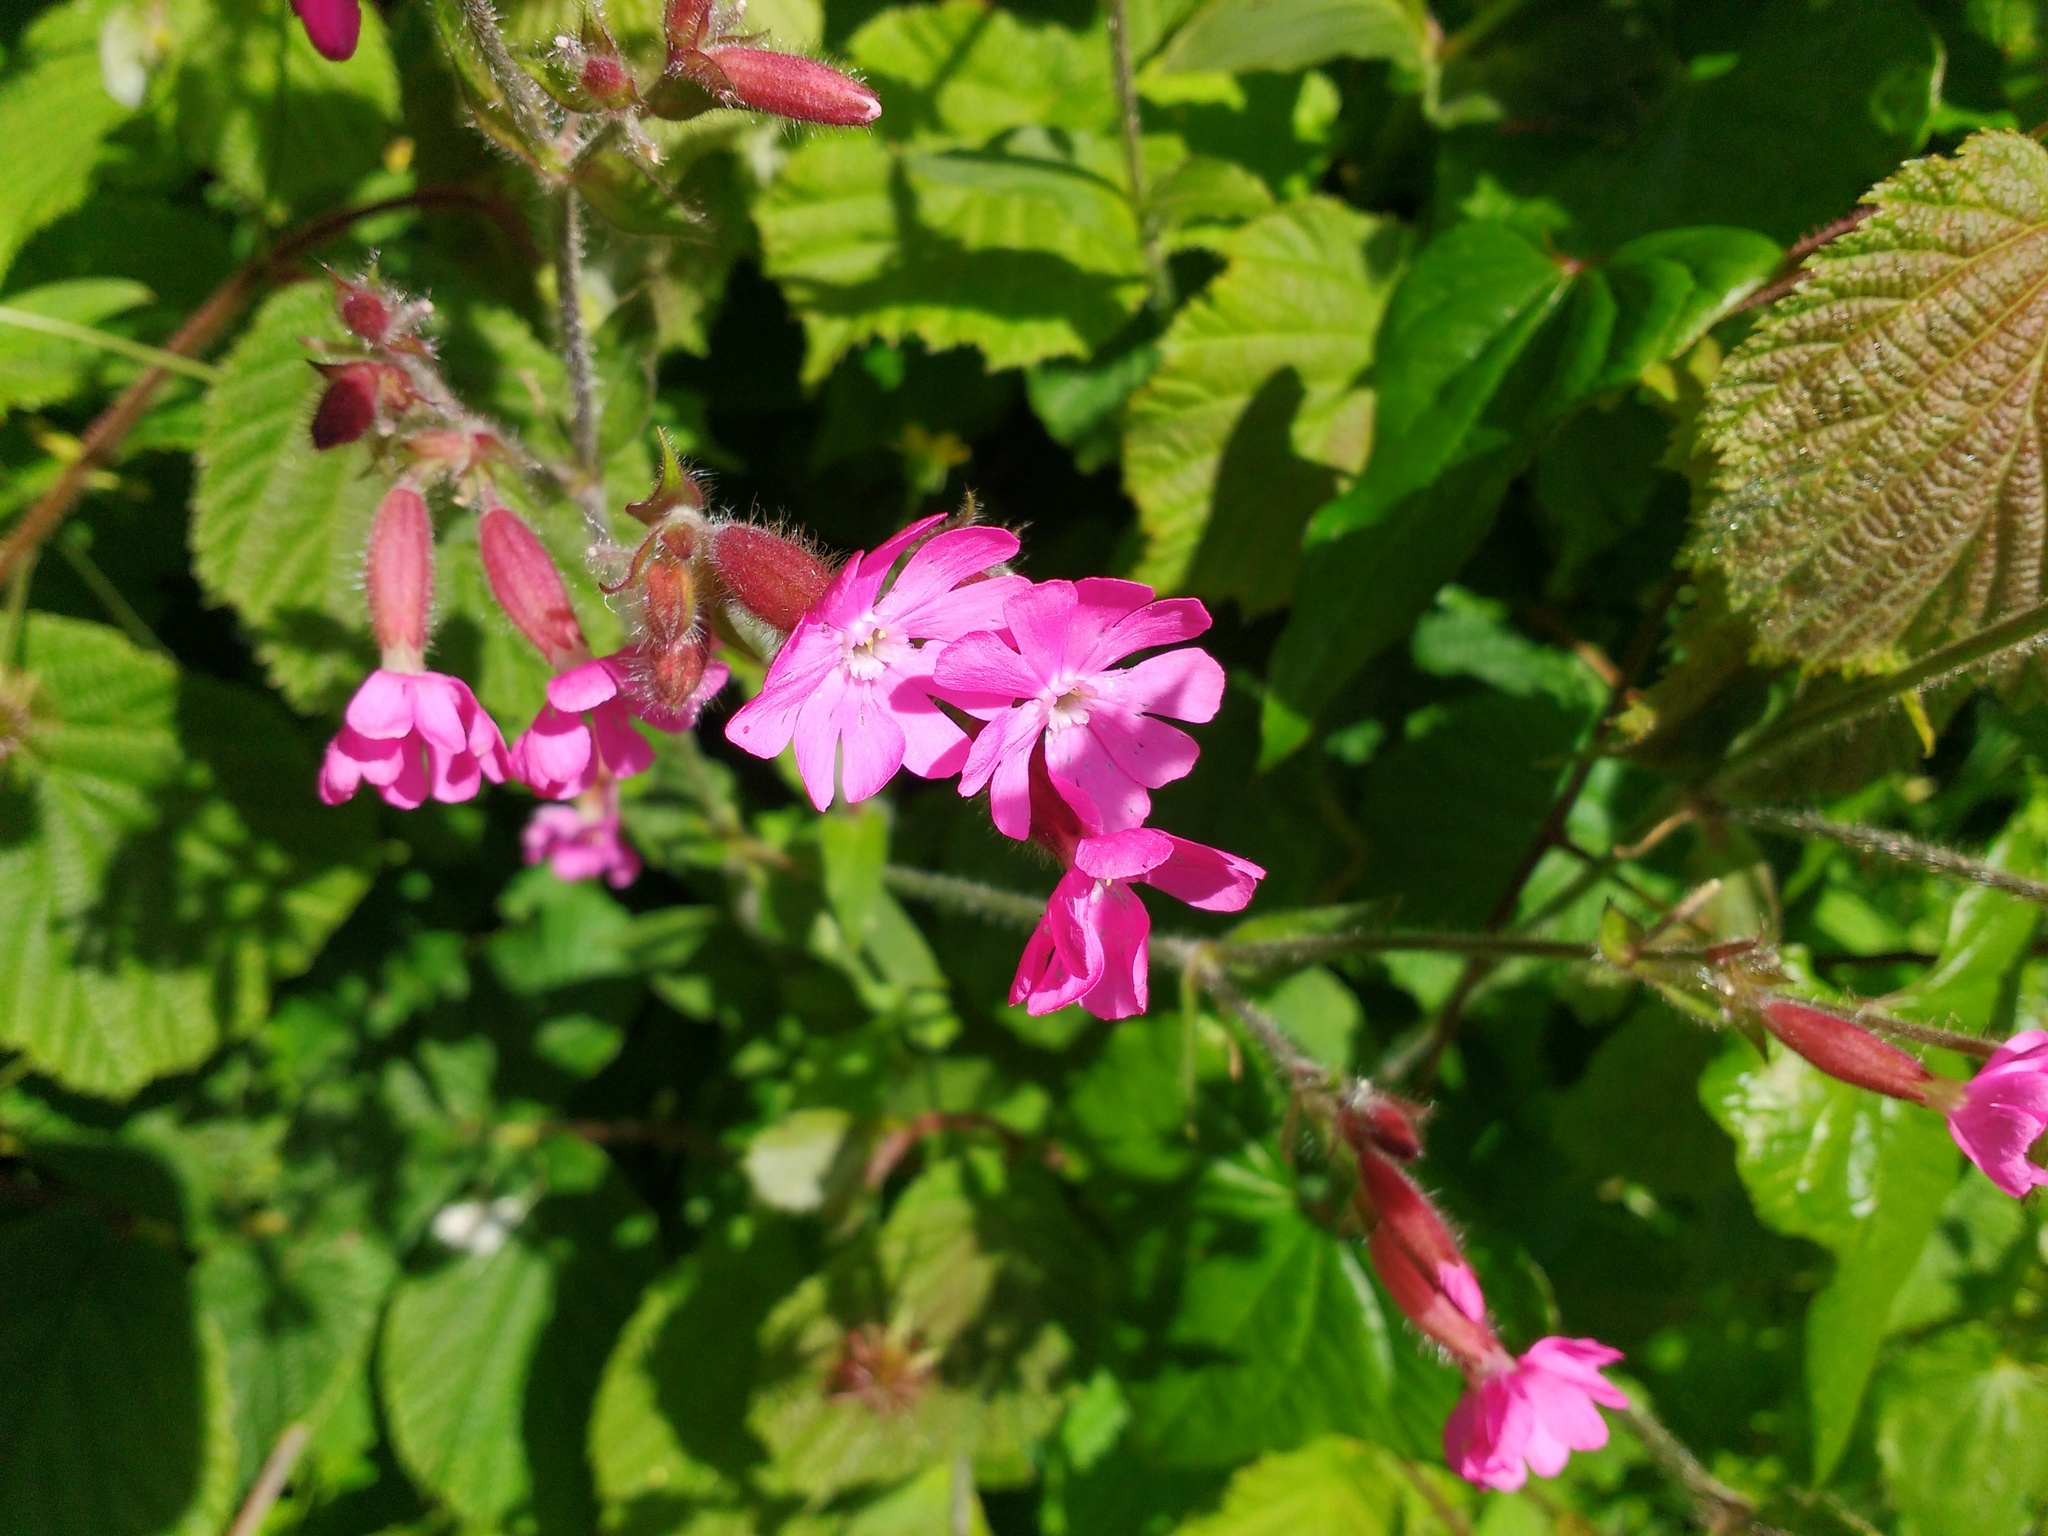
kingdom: Plantae
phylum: Tracheophyta
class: Magnoliopsida
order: Caryophyllales
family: Caryophyllaceae
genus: Silene
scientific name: Silene dioica
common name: Red campion
